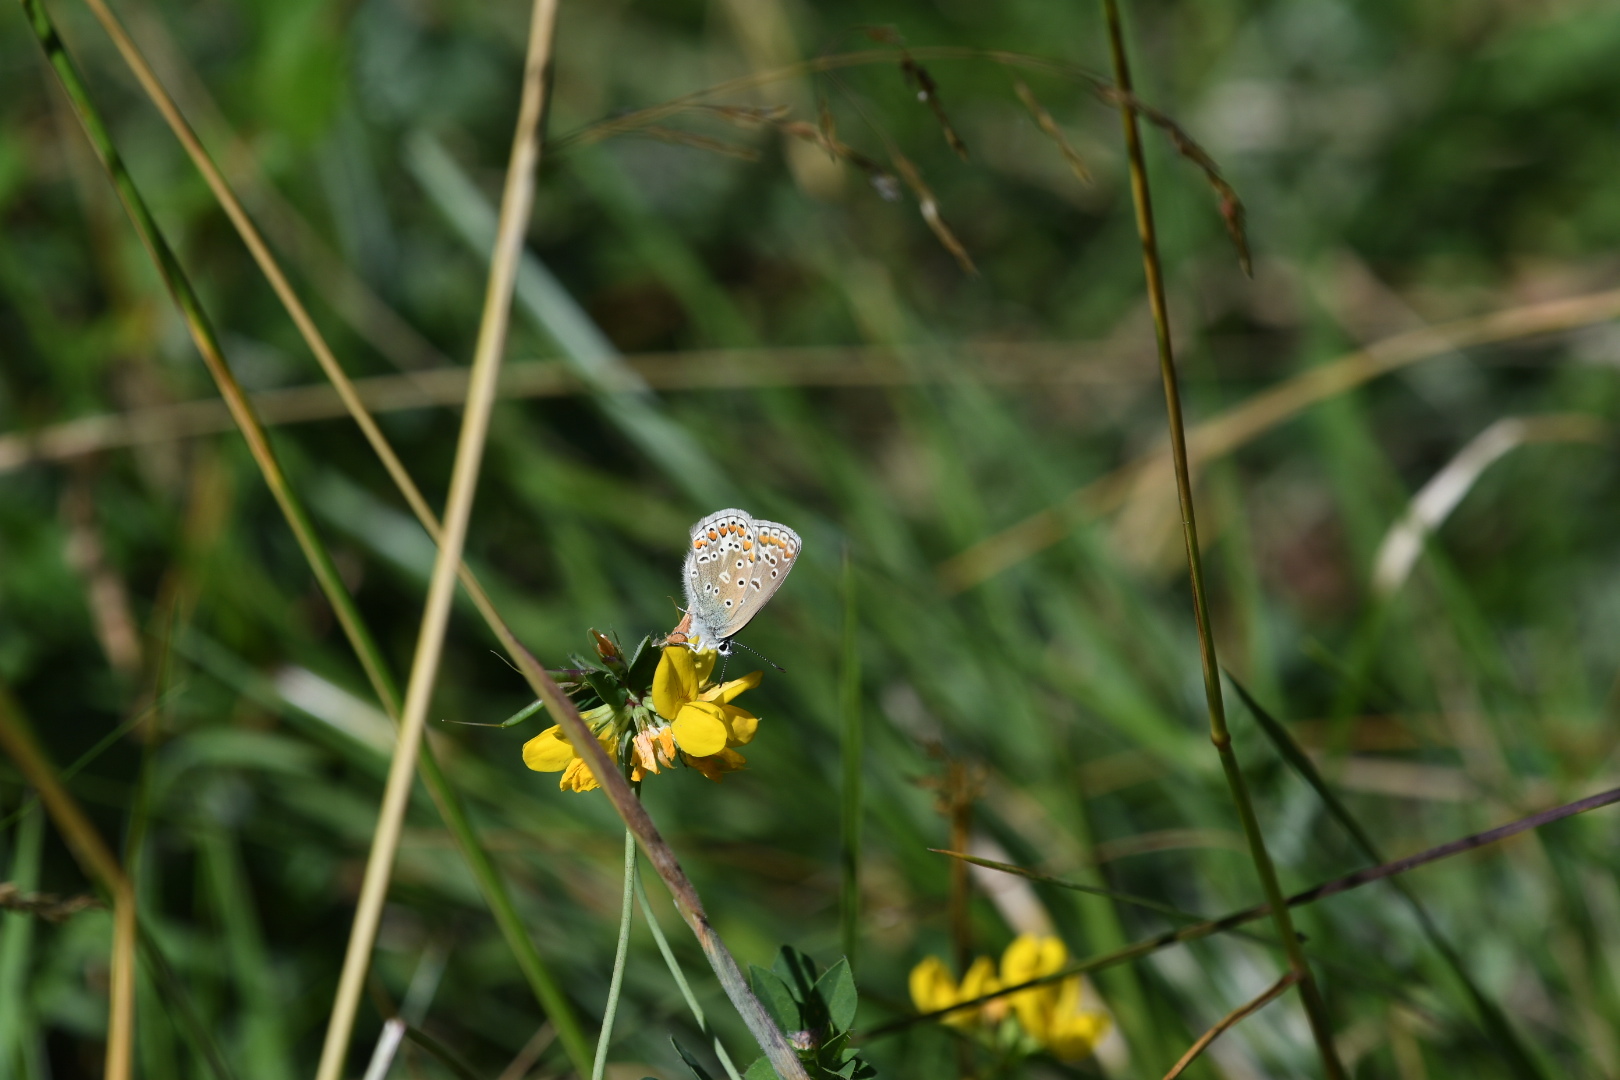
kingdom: Animalia
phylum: Arthropoda
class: Insecta
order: Lepidoptera
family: Lycaenidae
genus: Polyommatus
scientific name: Polyommatus icarus
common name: Common blue
